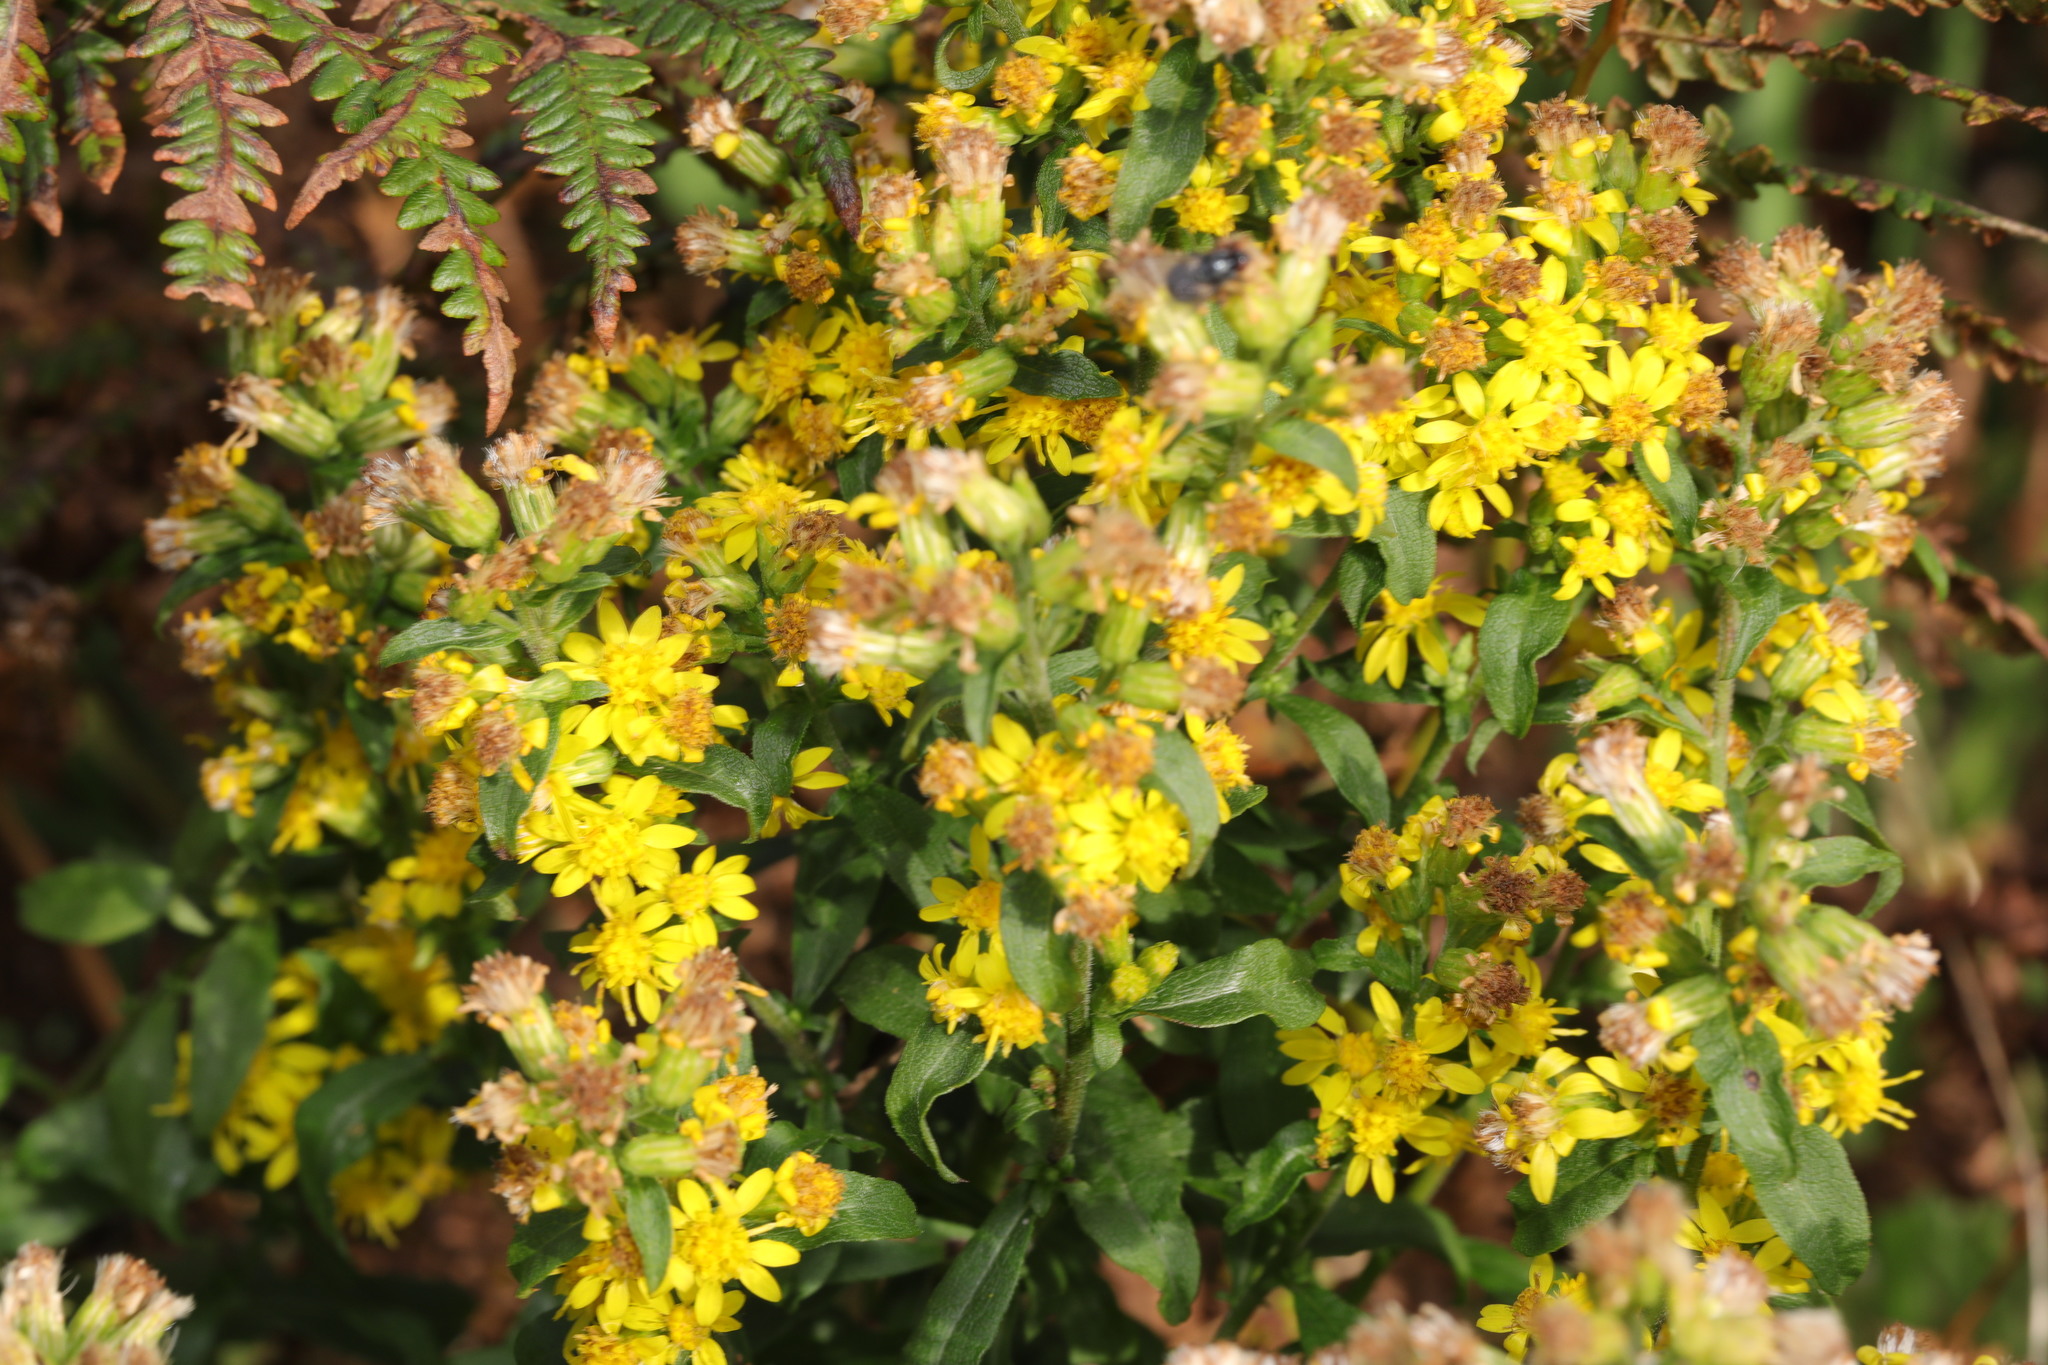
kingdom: Plantae
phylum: Tracheophyta
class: Magnoliopsida
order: Asterales
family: Asteraceae
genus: Solidago
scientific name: Solidago virgaurea
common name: Goldenrod
